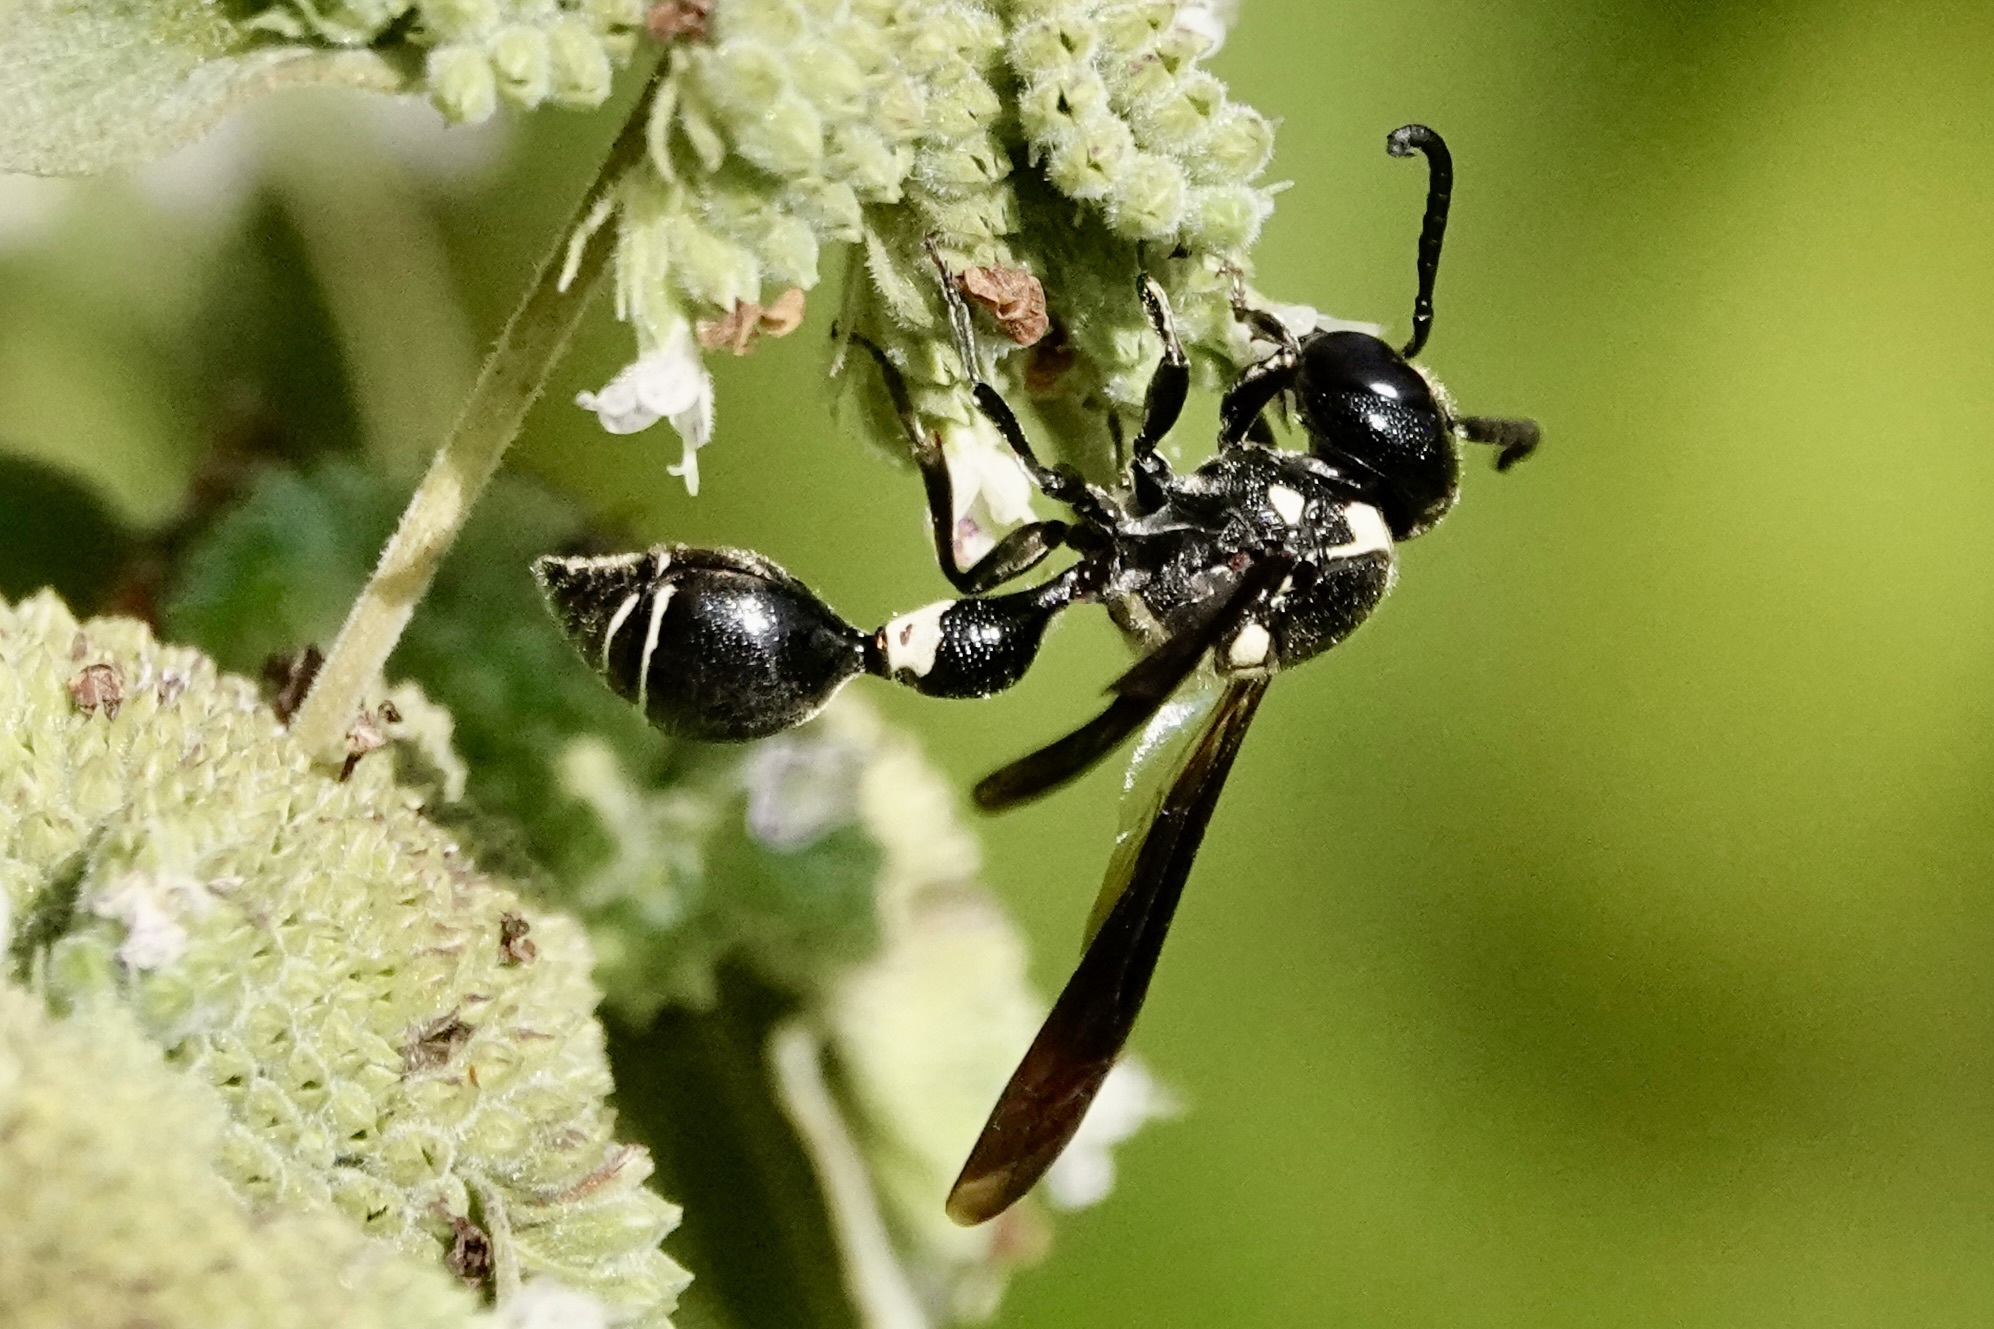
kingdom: Animalia
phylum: Arthropoda
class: Insecta
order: Hymenoptera
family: Eumenidae
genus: Zethus
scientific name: Zethus spinipes
